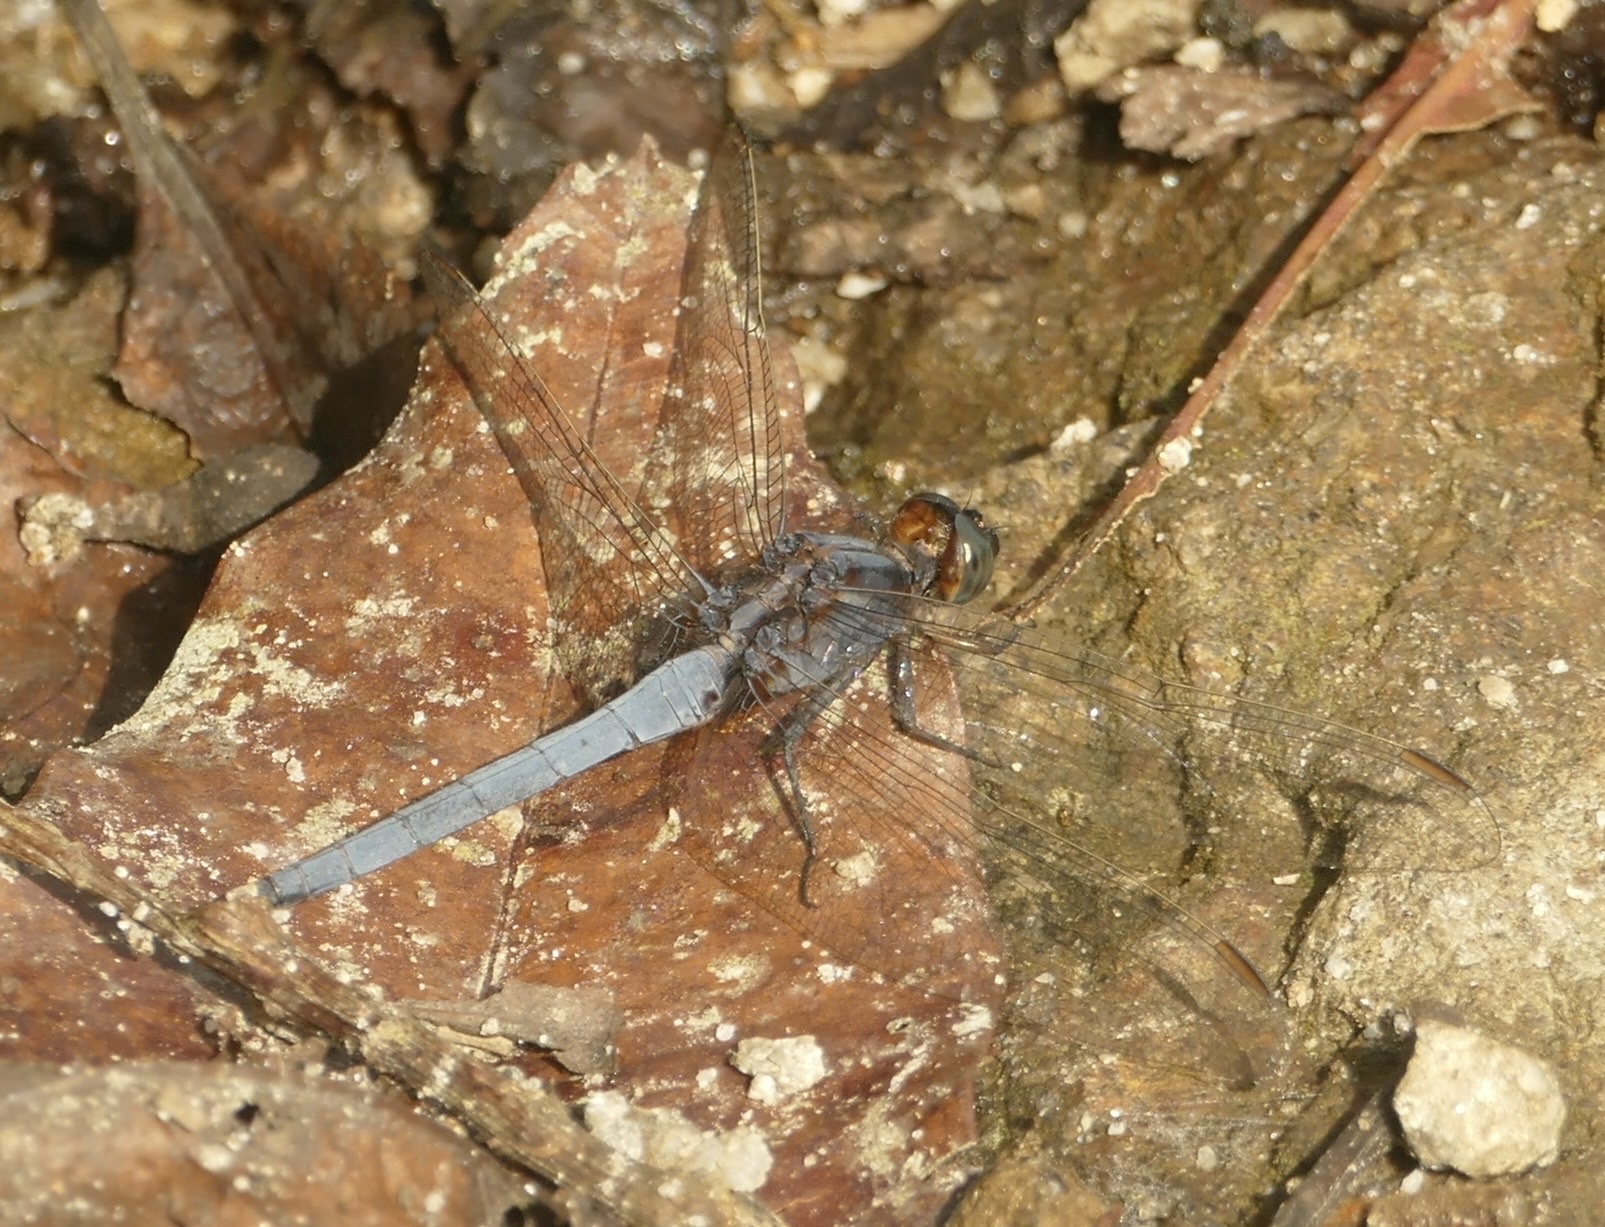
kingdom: Animalia
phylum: Arthropoda
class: Insecta
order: Odonata
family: Libellulidae
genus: Orthetrum
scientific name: Orthetrum glaucum
